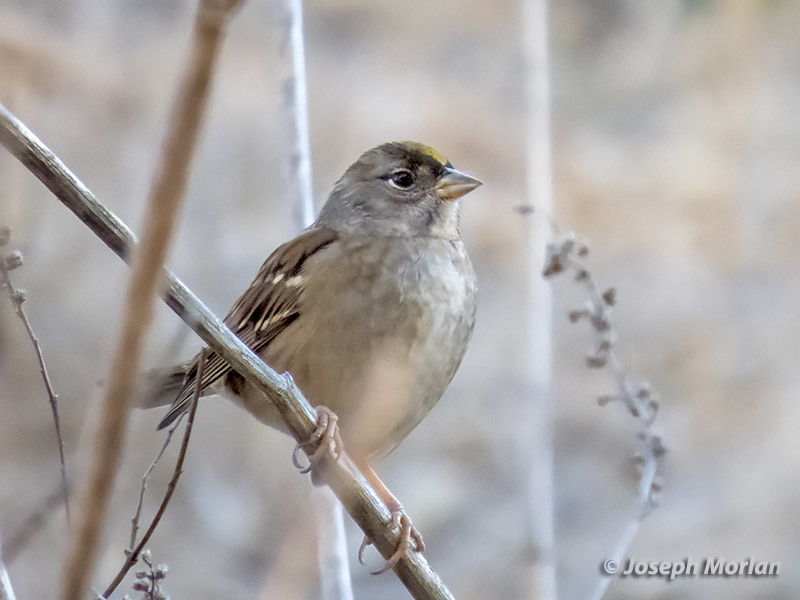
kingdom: Animalia
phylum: Chordata
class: Aves
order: Passeriformes
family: Passerellidae
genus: Zonotrichia
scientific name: Zonotrichia atricapilla
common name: Golden-crowned sparrow
